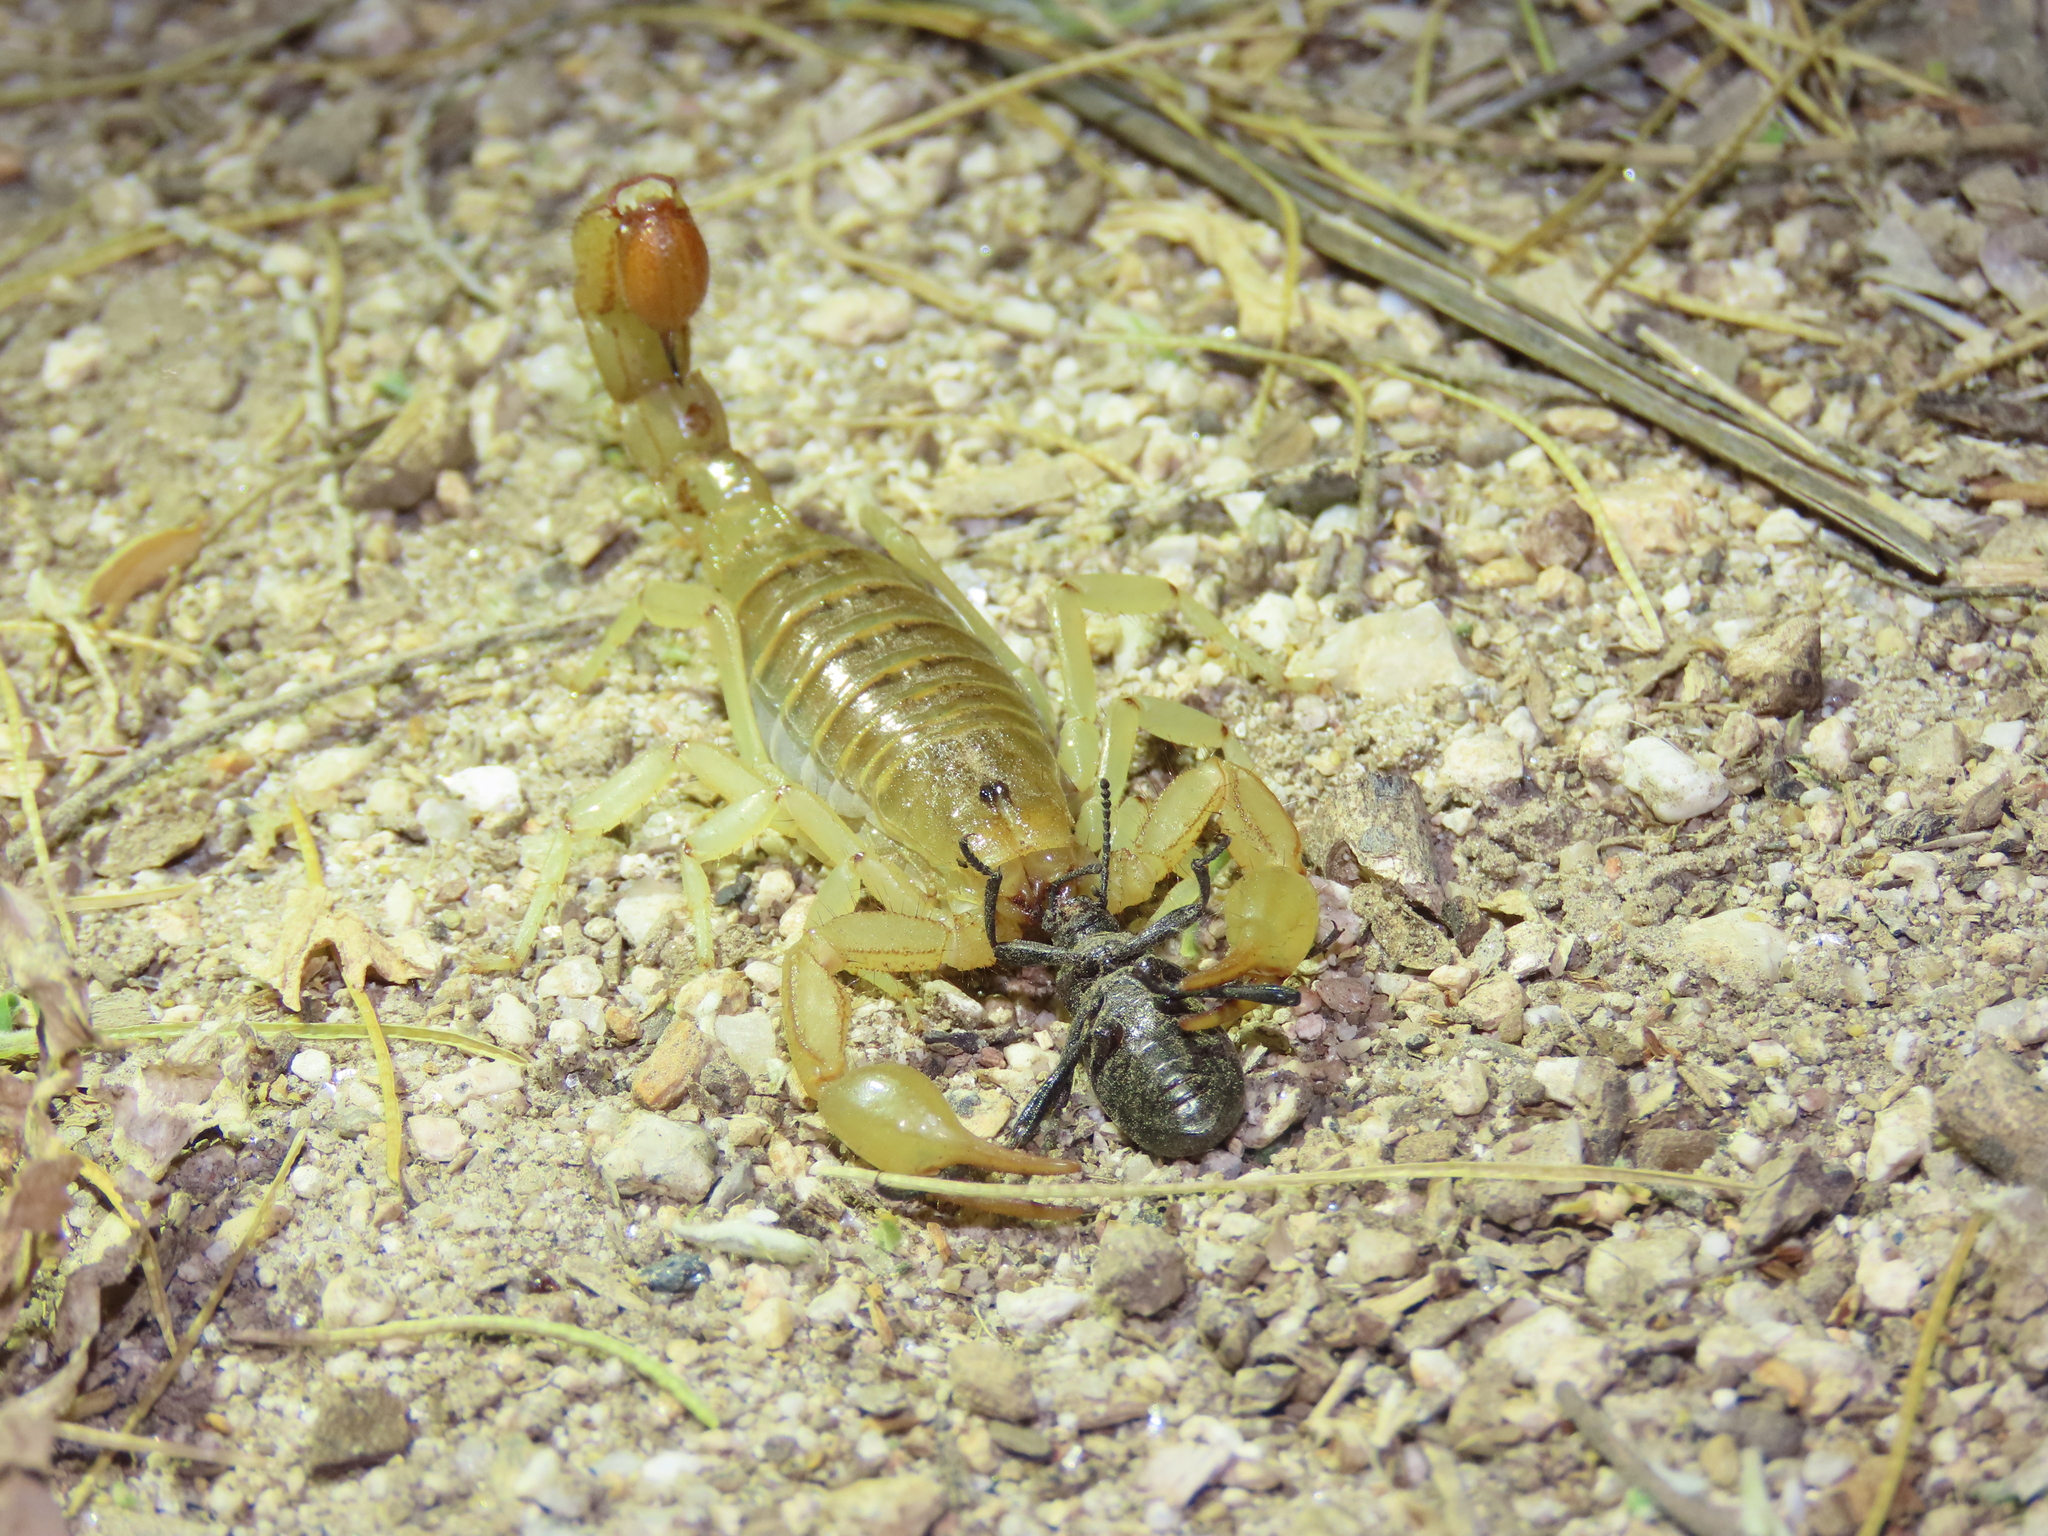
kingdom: Animalia
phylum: Arthropoda
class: Arachnida
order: Scorpiones
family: Vaejovidae
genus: Paravaejovis
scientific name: Paravaejovis spinigerus
